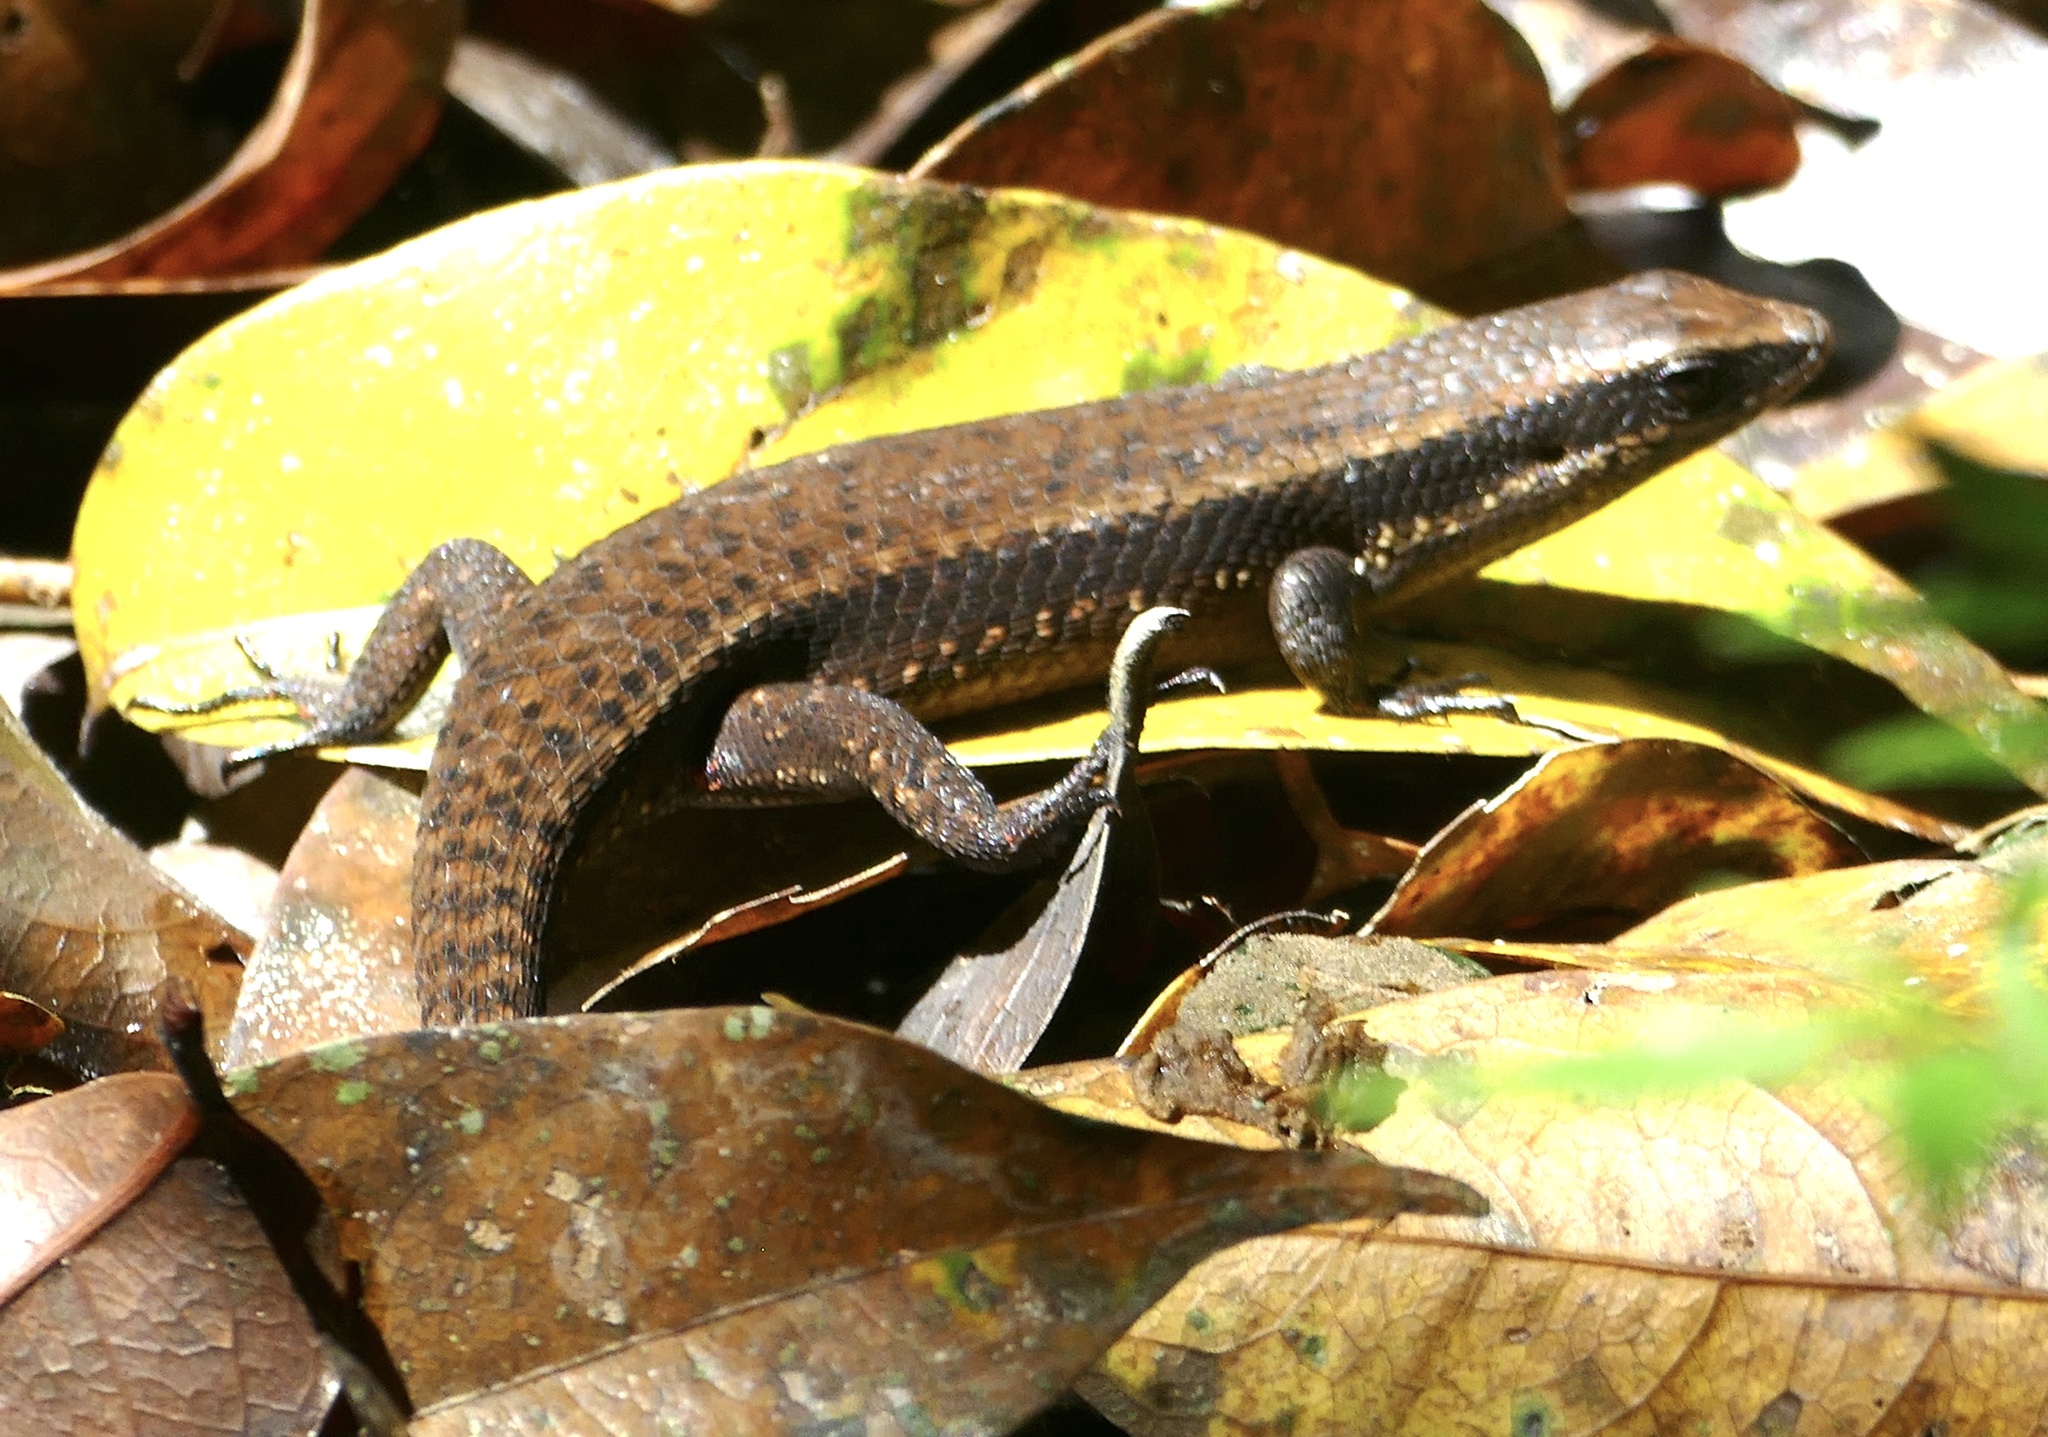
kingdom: Animalia
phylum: Chordata
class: Squamata
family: Scincidae
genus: Eutropis
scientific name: Eutropis rudis
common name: Rough mabuya
